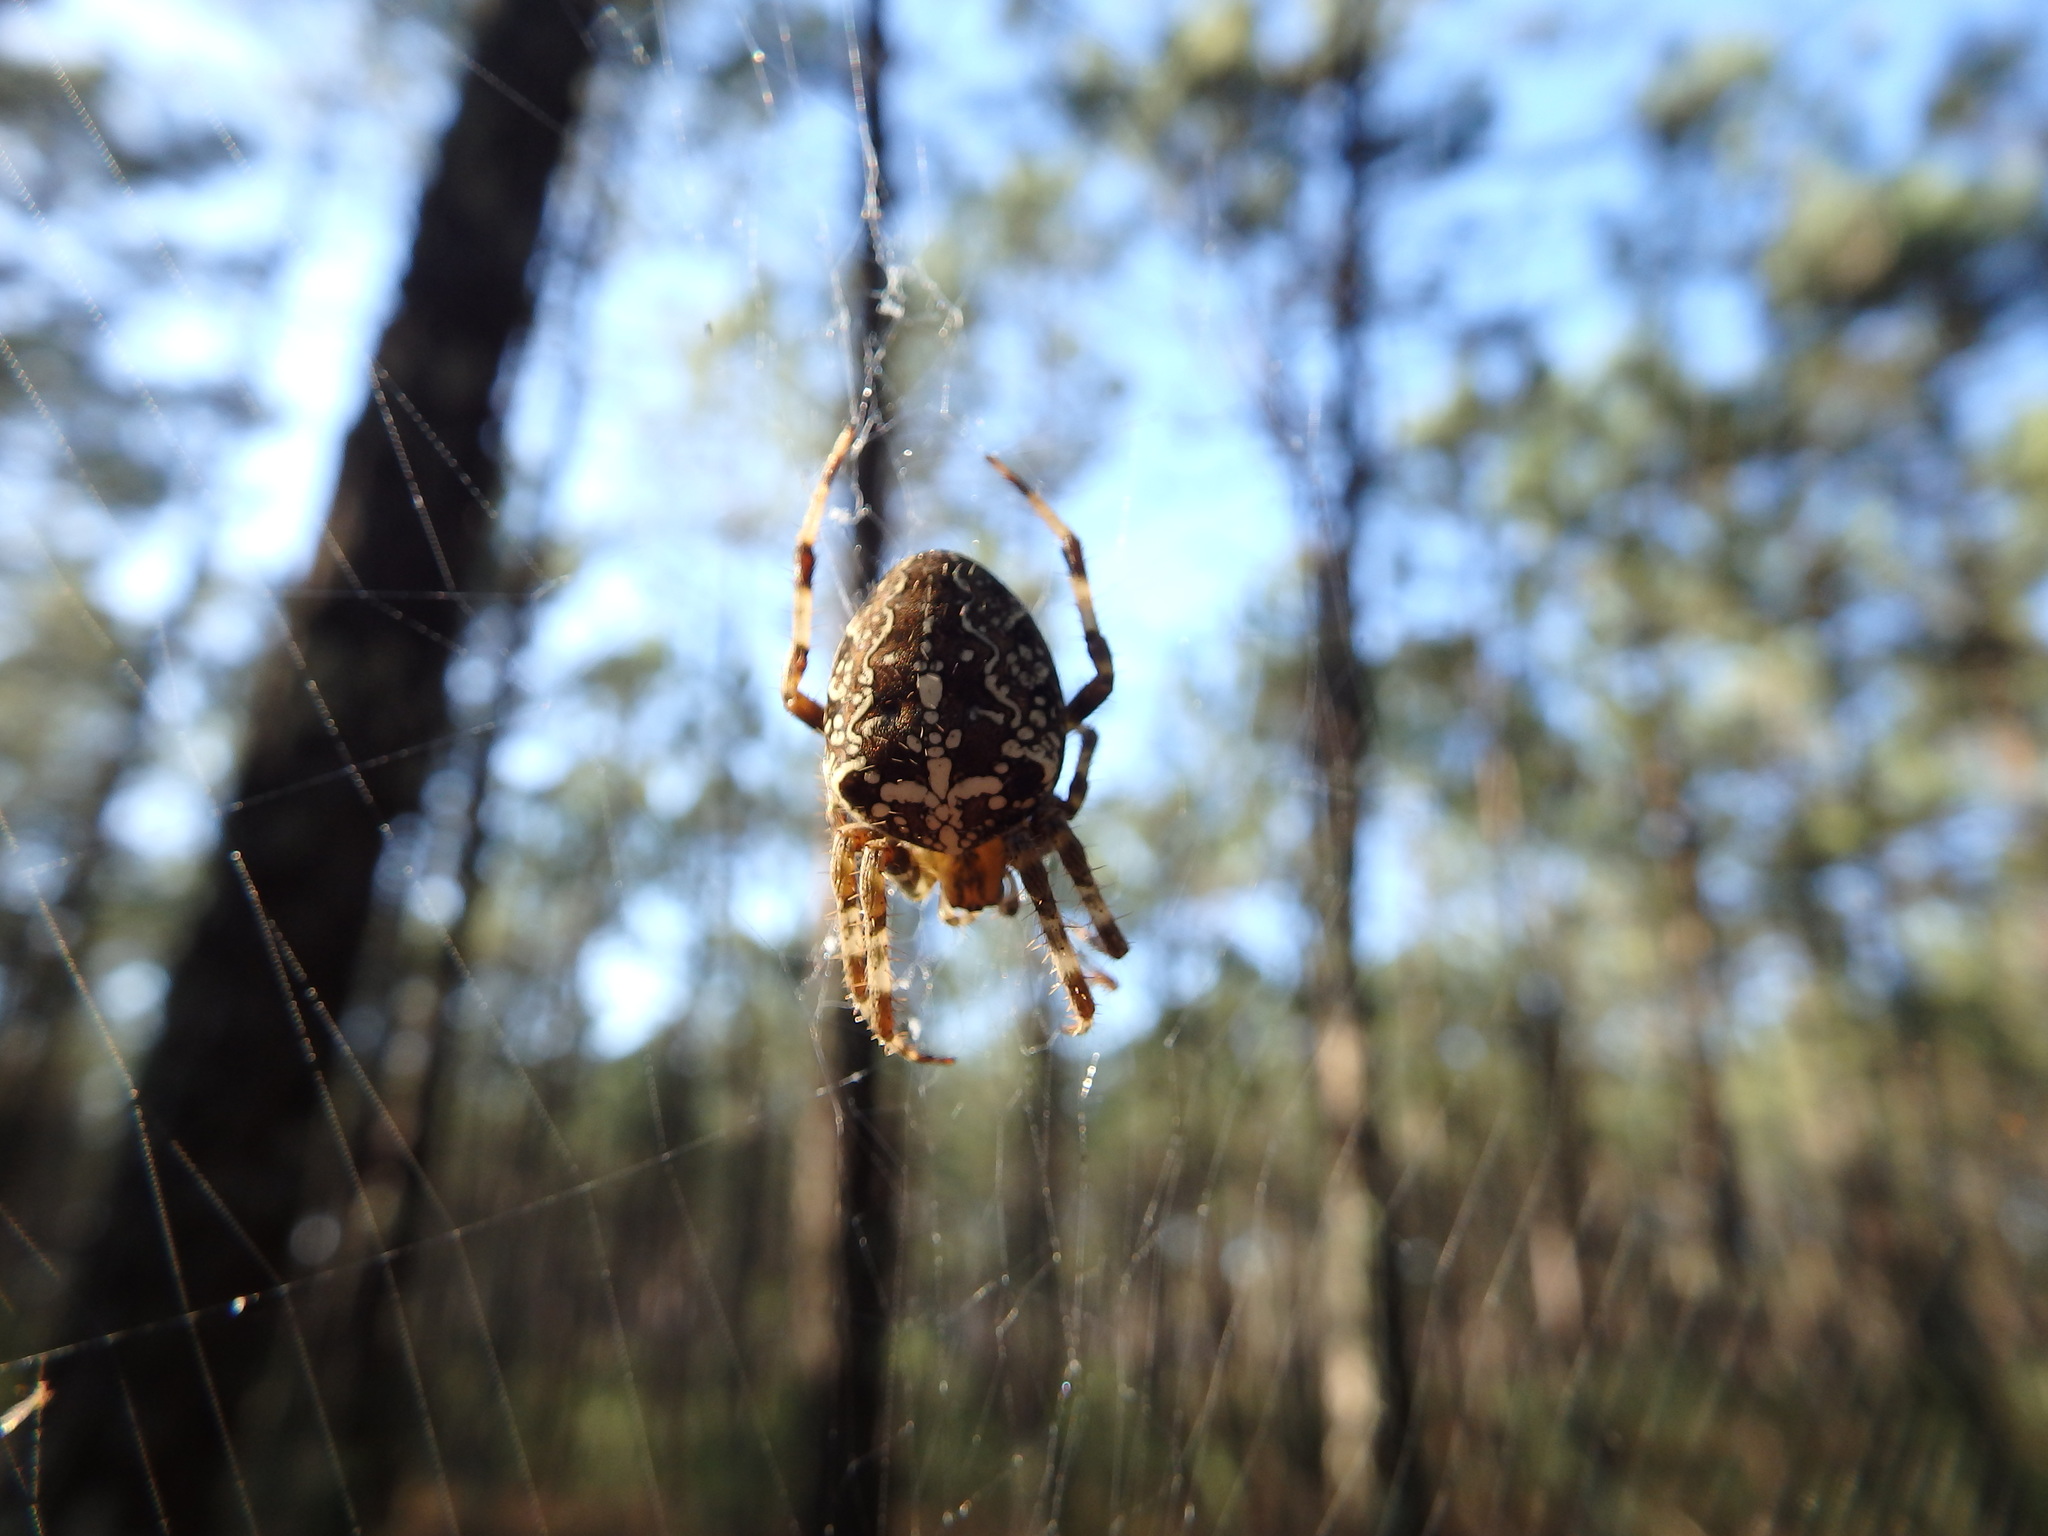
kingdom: Animalia
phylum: Arthropoda
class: Arachnida
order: Araneae
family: Araneidae
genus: Araneus
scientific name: Araneus diadematus
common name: Cross orbweaver
